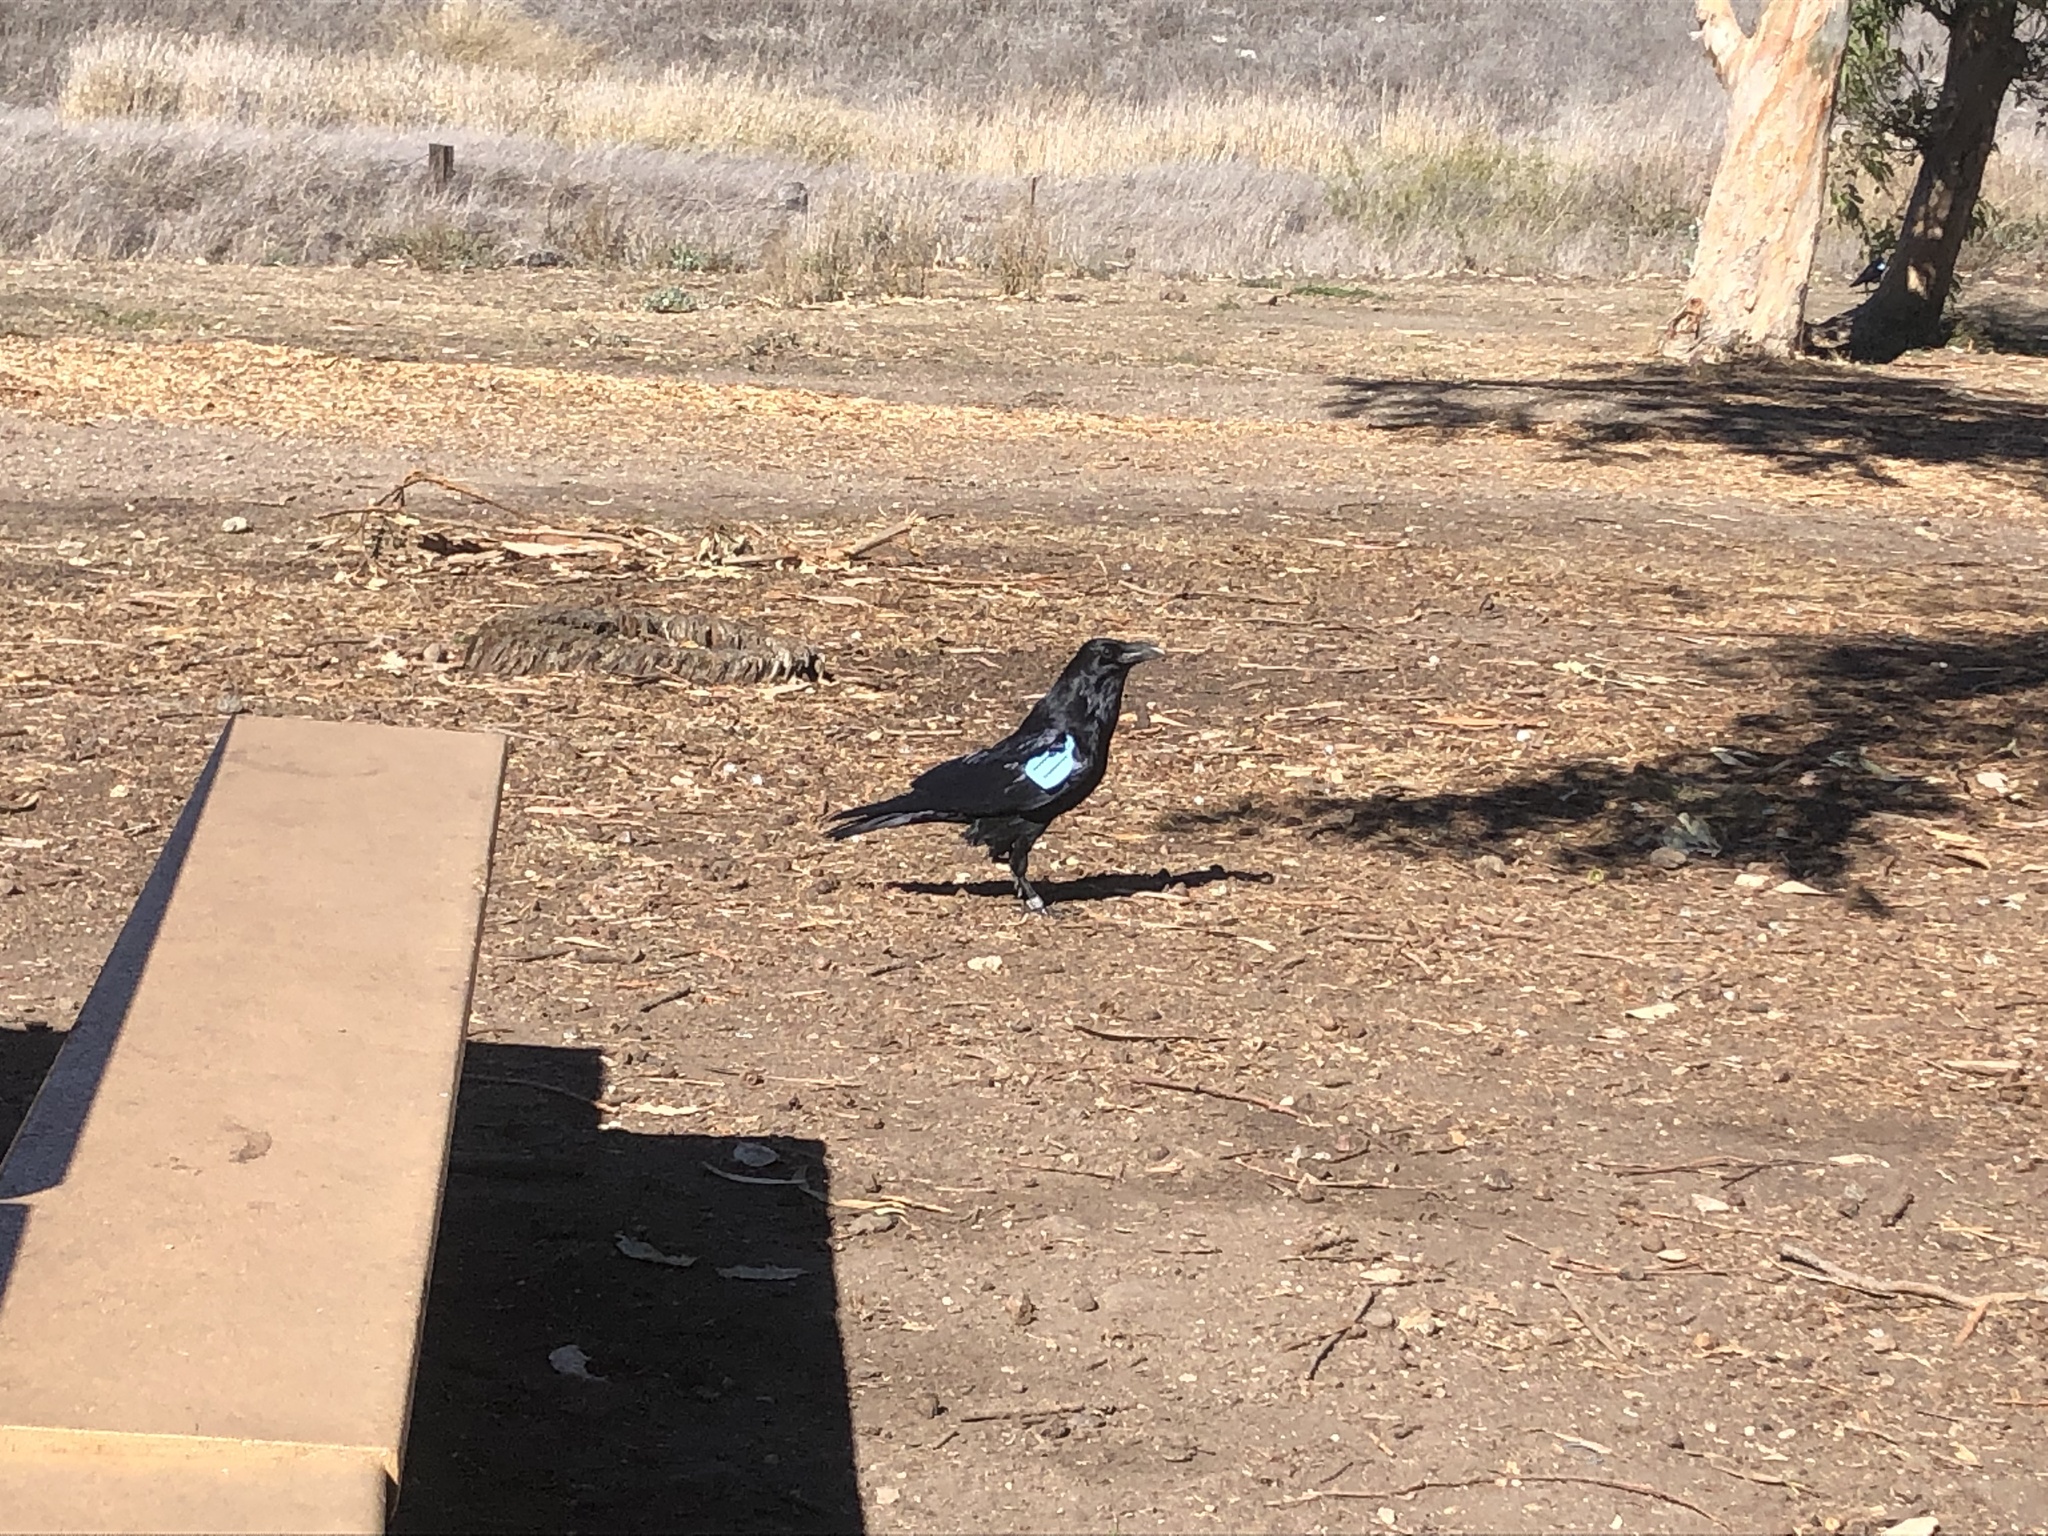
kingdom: Animalia
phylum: Chordata
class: Aves
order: Passeriformes
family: Corvidae
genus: Corvus
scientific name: Corvus corax
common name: Common raven
